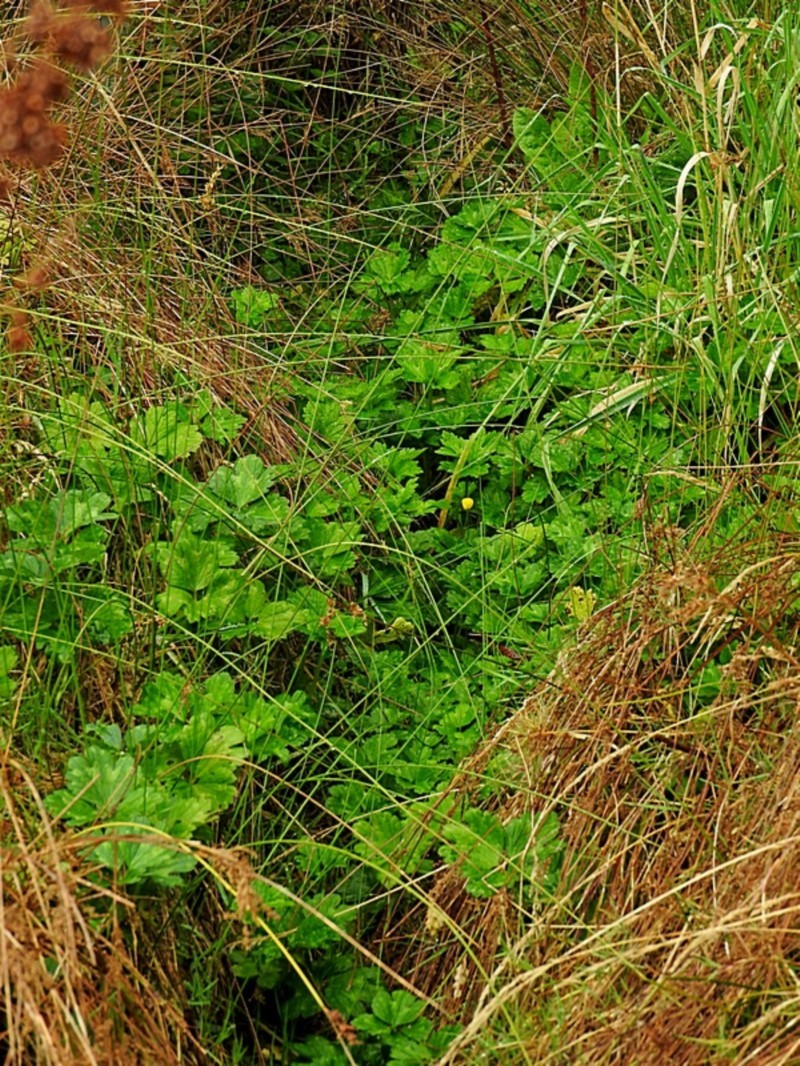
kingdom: Plantae
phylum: Tracheophyta
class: Magnoliopsida
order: Ranunculales
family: Ranunculaceae
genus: Ranunculus
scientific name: Ranunculus repens
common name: Creeping buttercup
